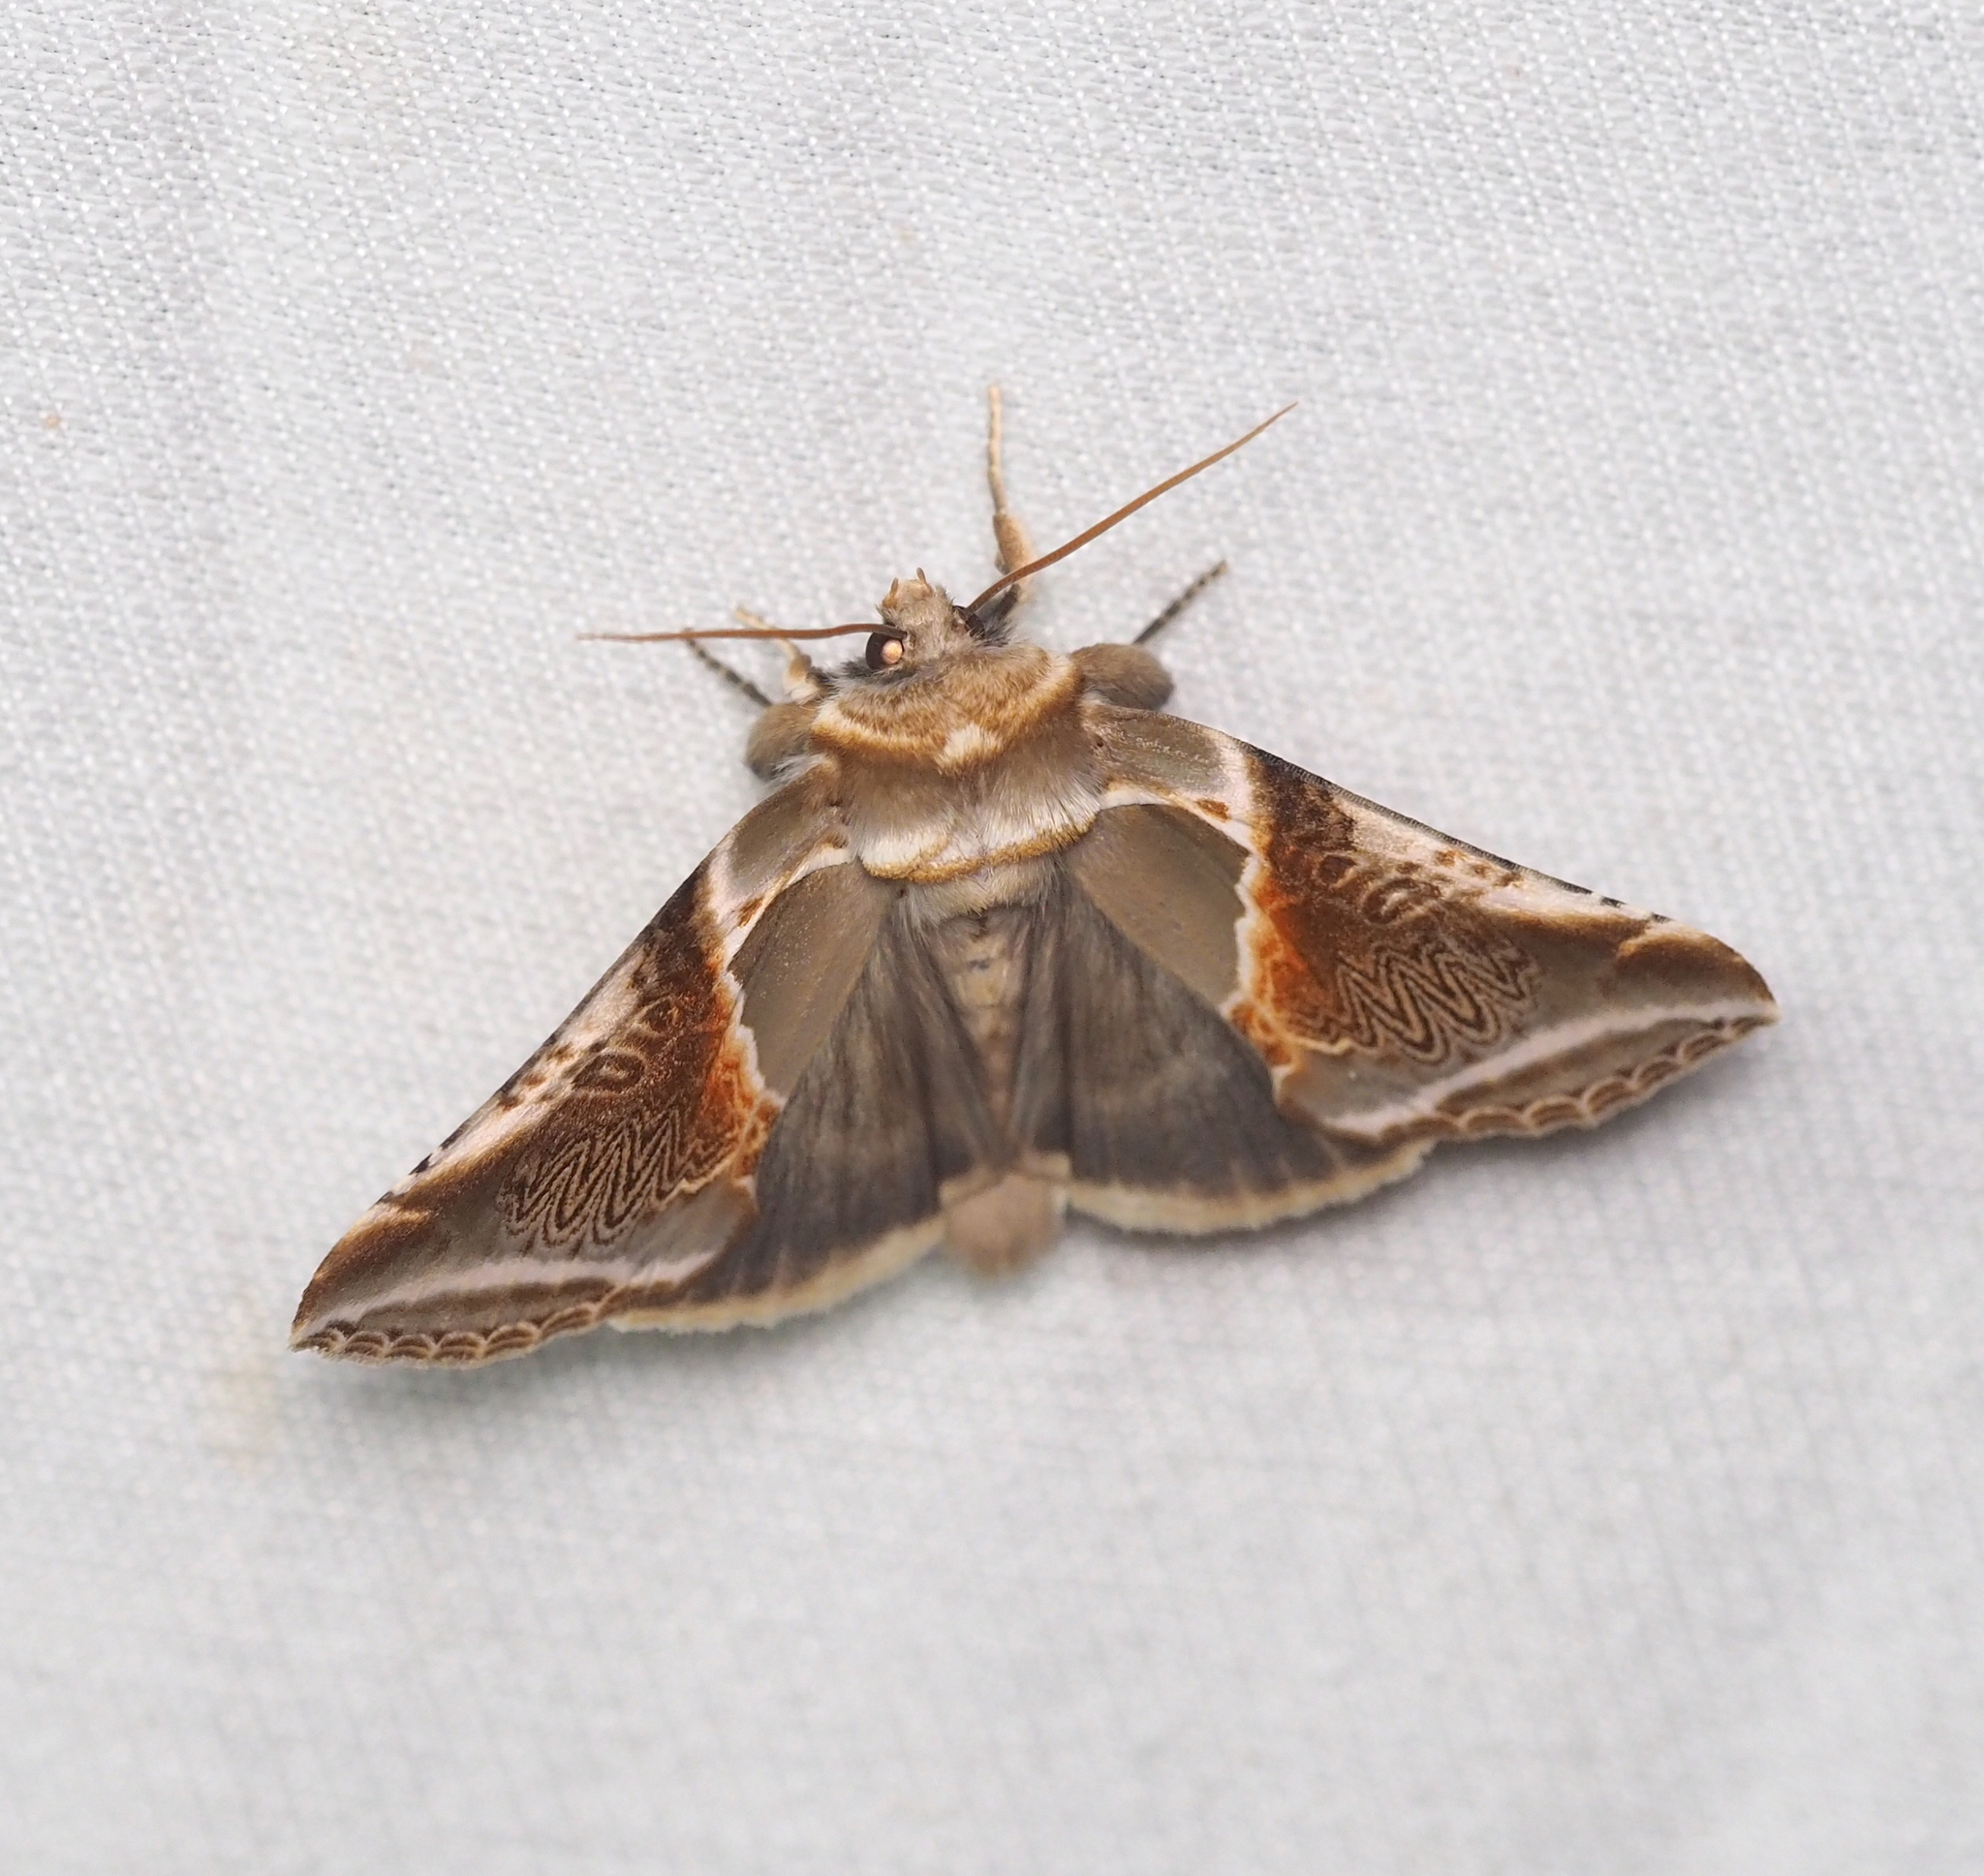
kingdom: Animalia
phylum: Arthropoda
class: Insecta
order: Lepidoptera
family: Drepanidae
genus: Habrosyne
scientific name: Habrosyne pyritoides
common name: Buff arches
